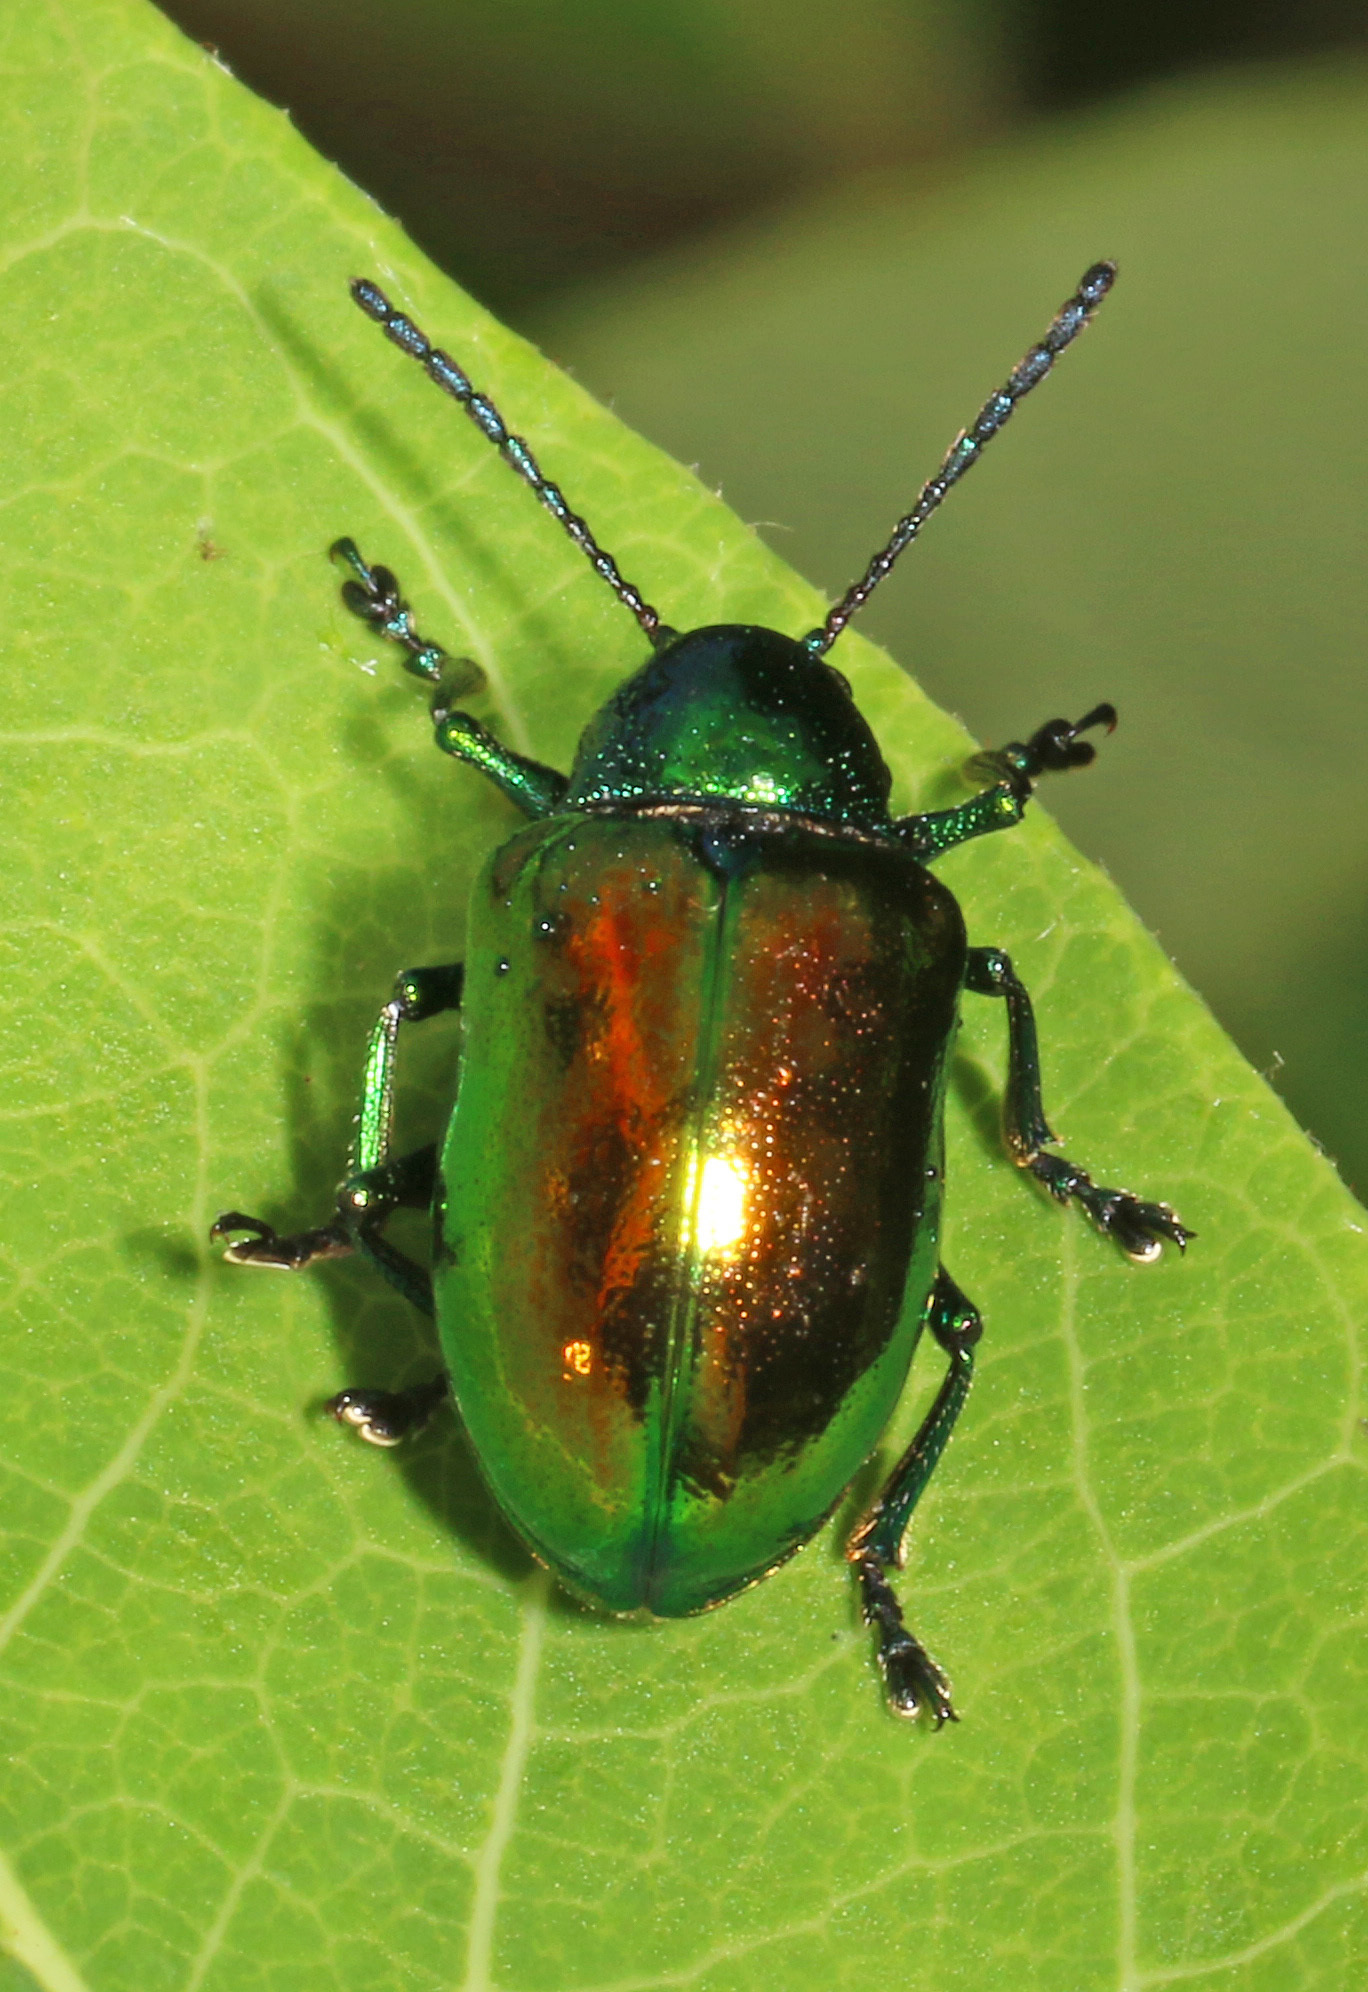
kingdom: Animalia
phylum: Arthropoda
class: Insecta
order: Coleoptera
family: Chrysomelidae
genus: Chrysochus
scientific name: Chrysochus auratus
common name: Dogbane leaf beetle
